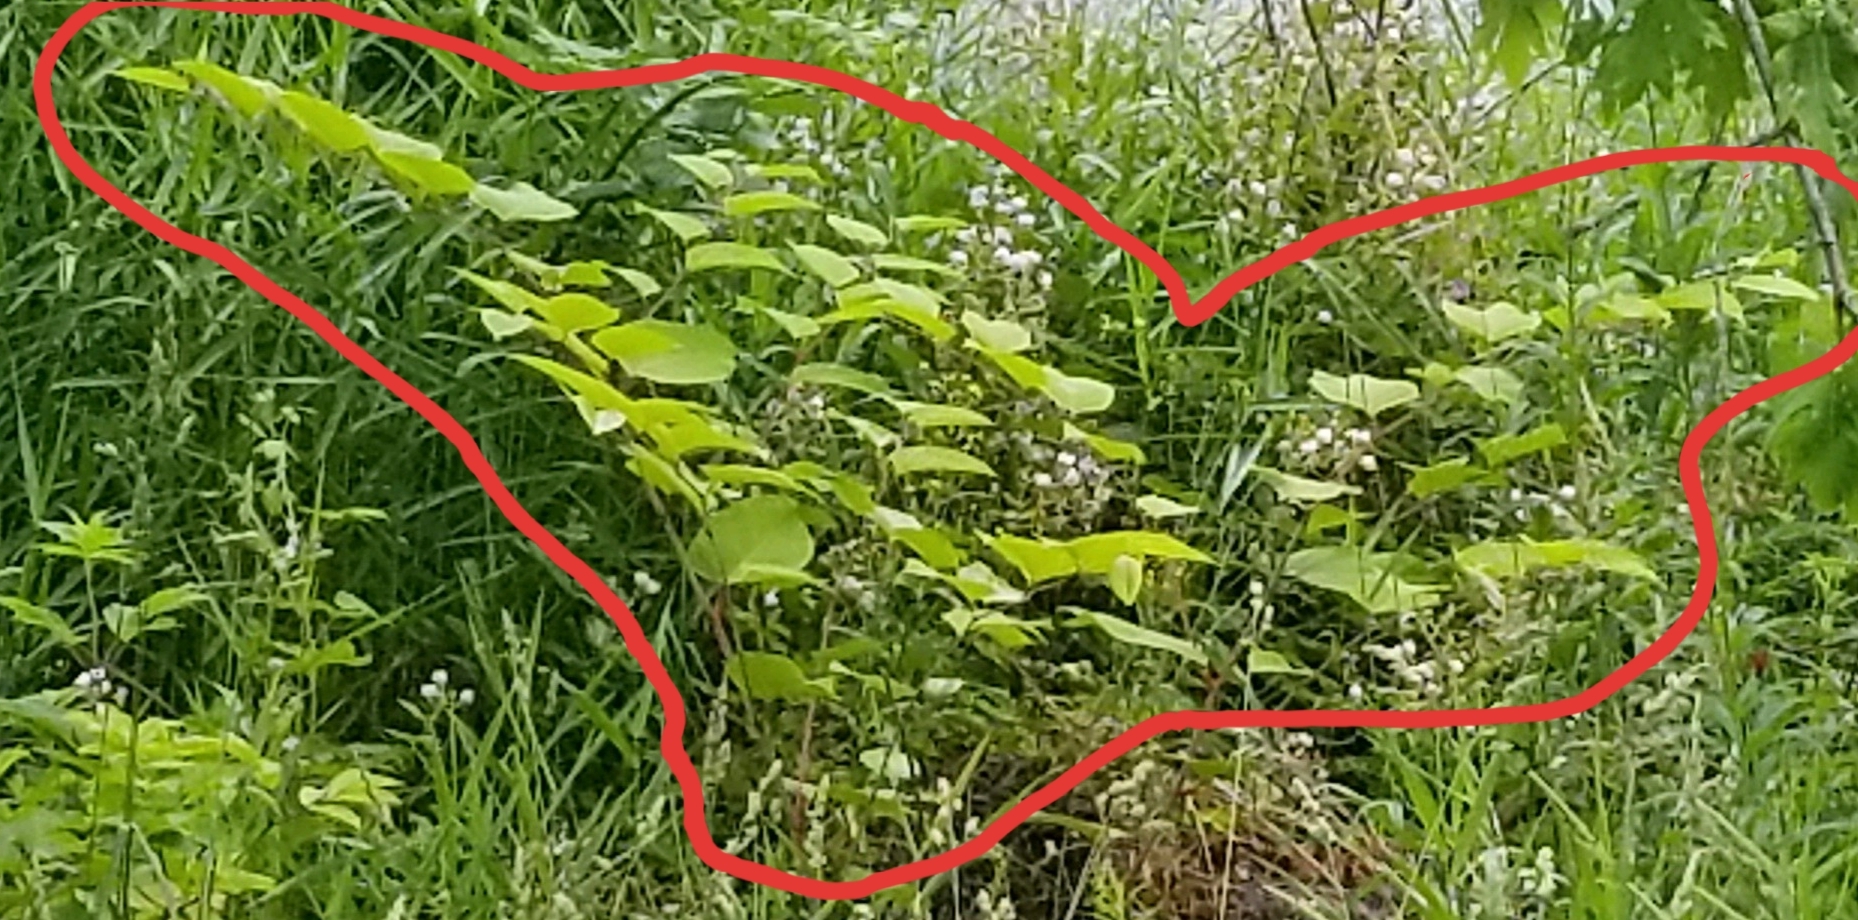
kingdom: Plantae
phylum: Tracheophyta
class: Magnoliopsida
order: Caryophyllales
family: Polygonaceae
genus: Reynoutria
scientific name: Reynoutria bohemica
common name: Bohemian knotweed
